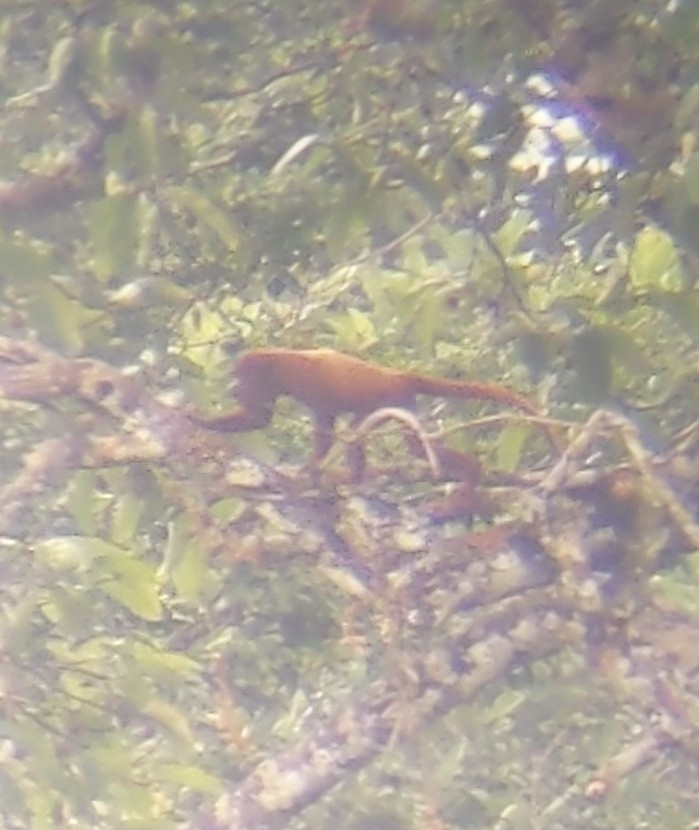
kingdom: Animalia
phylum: Chordata
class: Mammalia
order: Primates
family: Atelidae
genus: Alouatta
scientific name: Alouatta seniculus
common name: Venezuelan red howler
